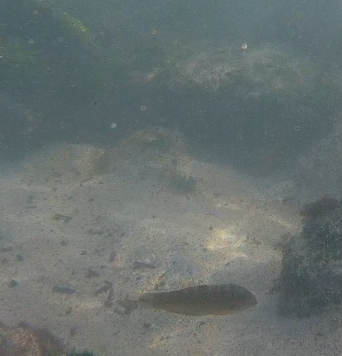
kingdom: Animalia
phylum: Chordata
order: Perciformes
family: Labridae
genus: Halichoeres
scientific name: Halichoeres notospilus
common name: Banded wrasse
